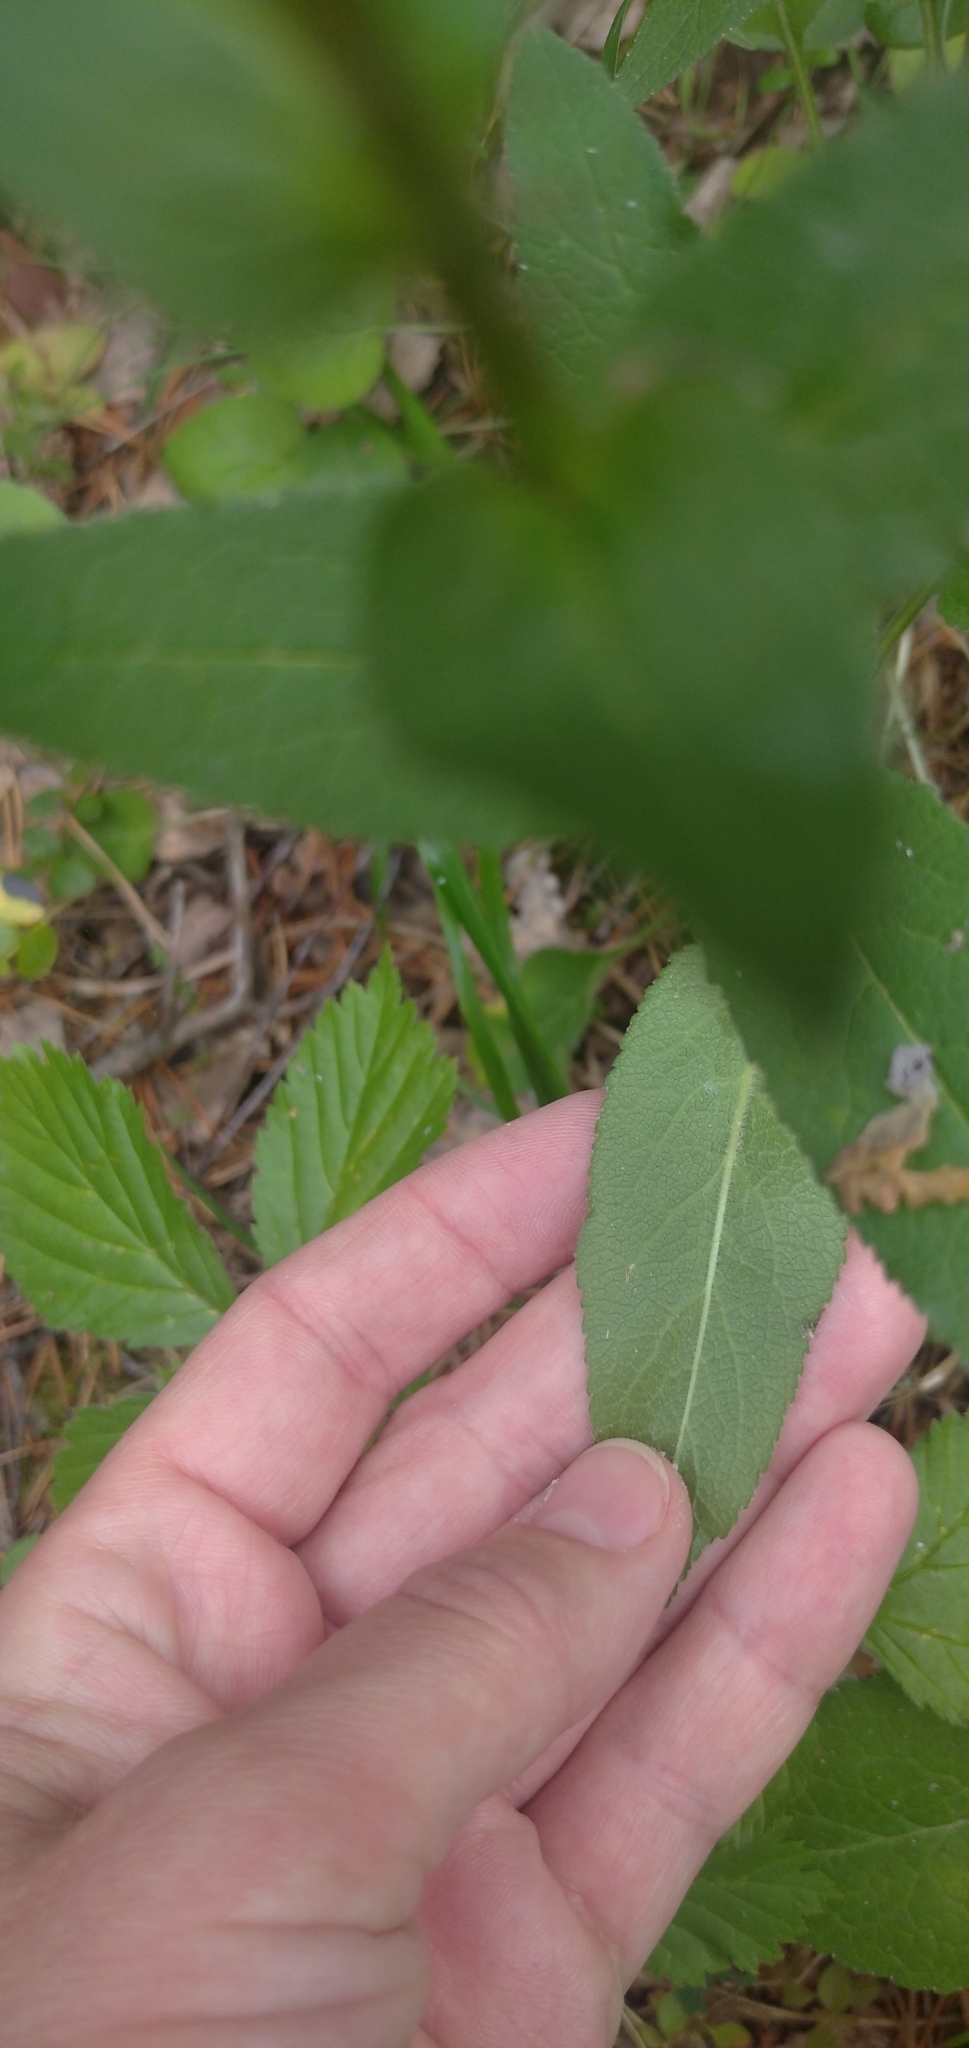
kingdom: Plantae
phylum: Tracheophyta
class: Magnoliopsida
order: Asterales
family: Campanulaceae
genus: Campanula
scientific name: Campanula glomerata
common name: Clustered bellflower
